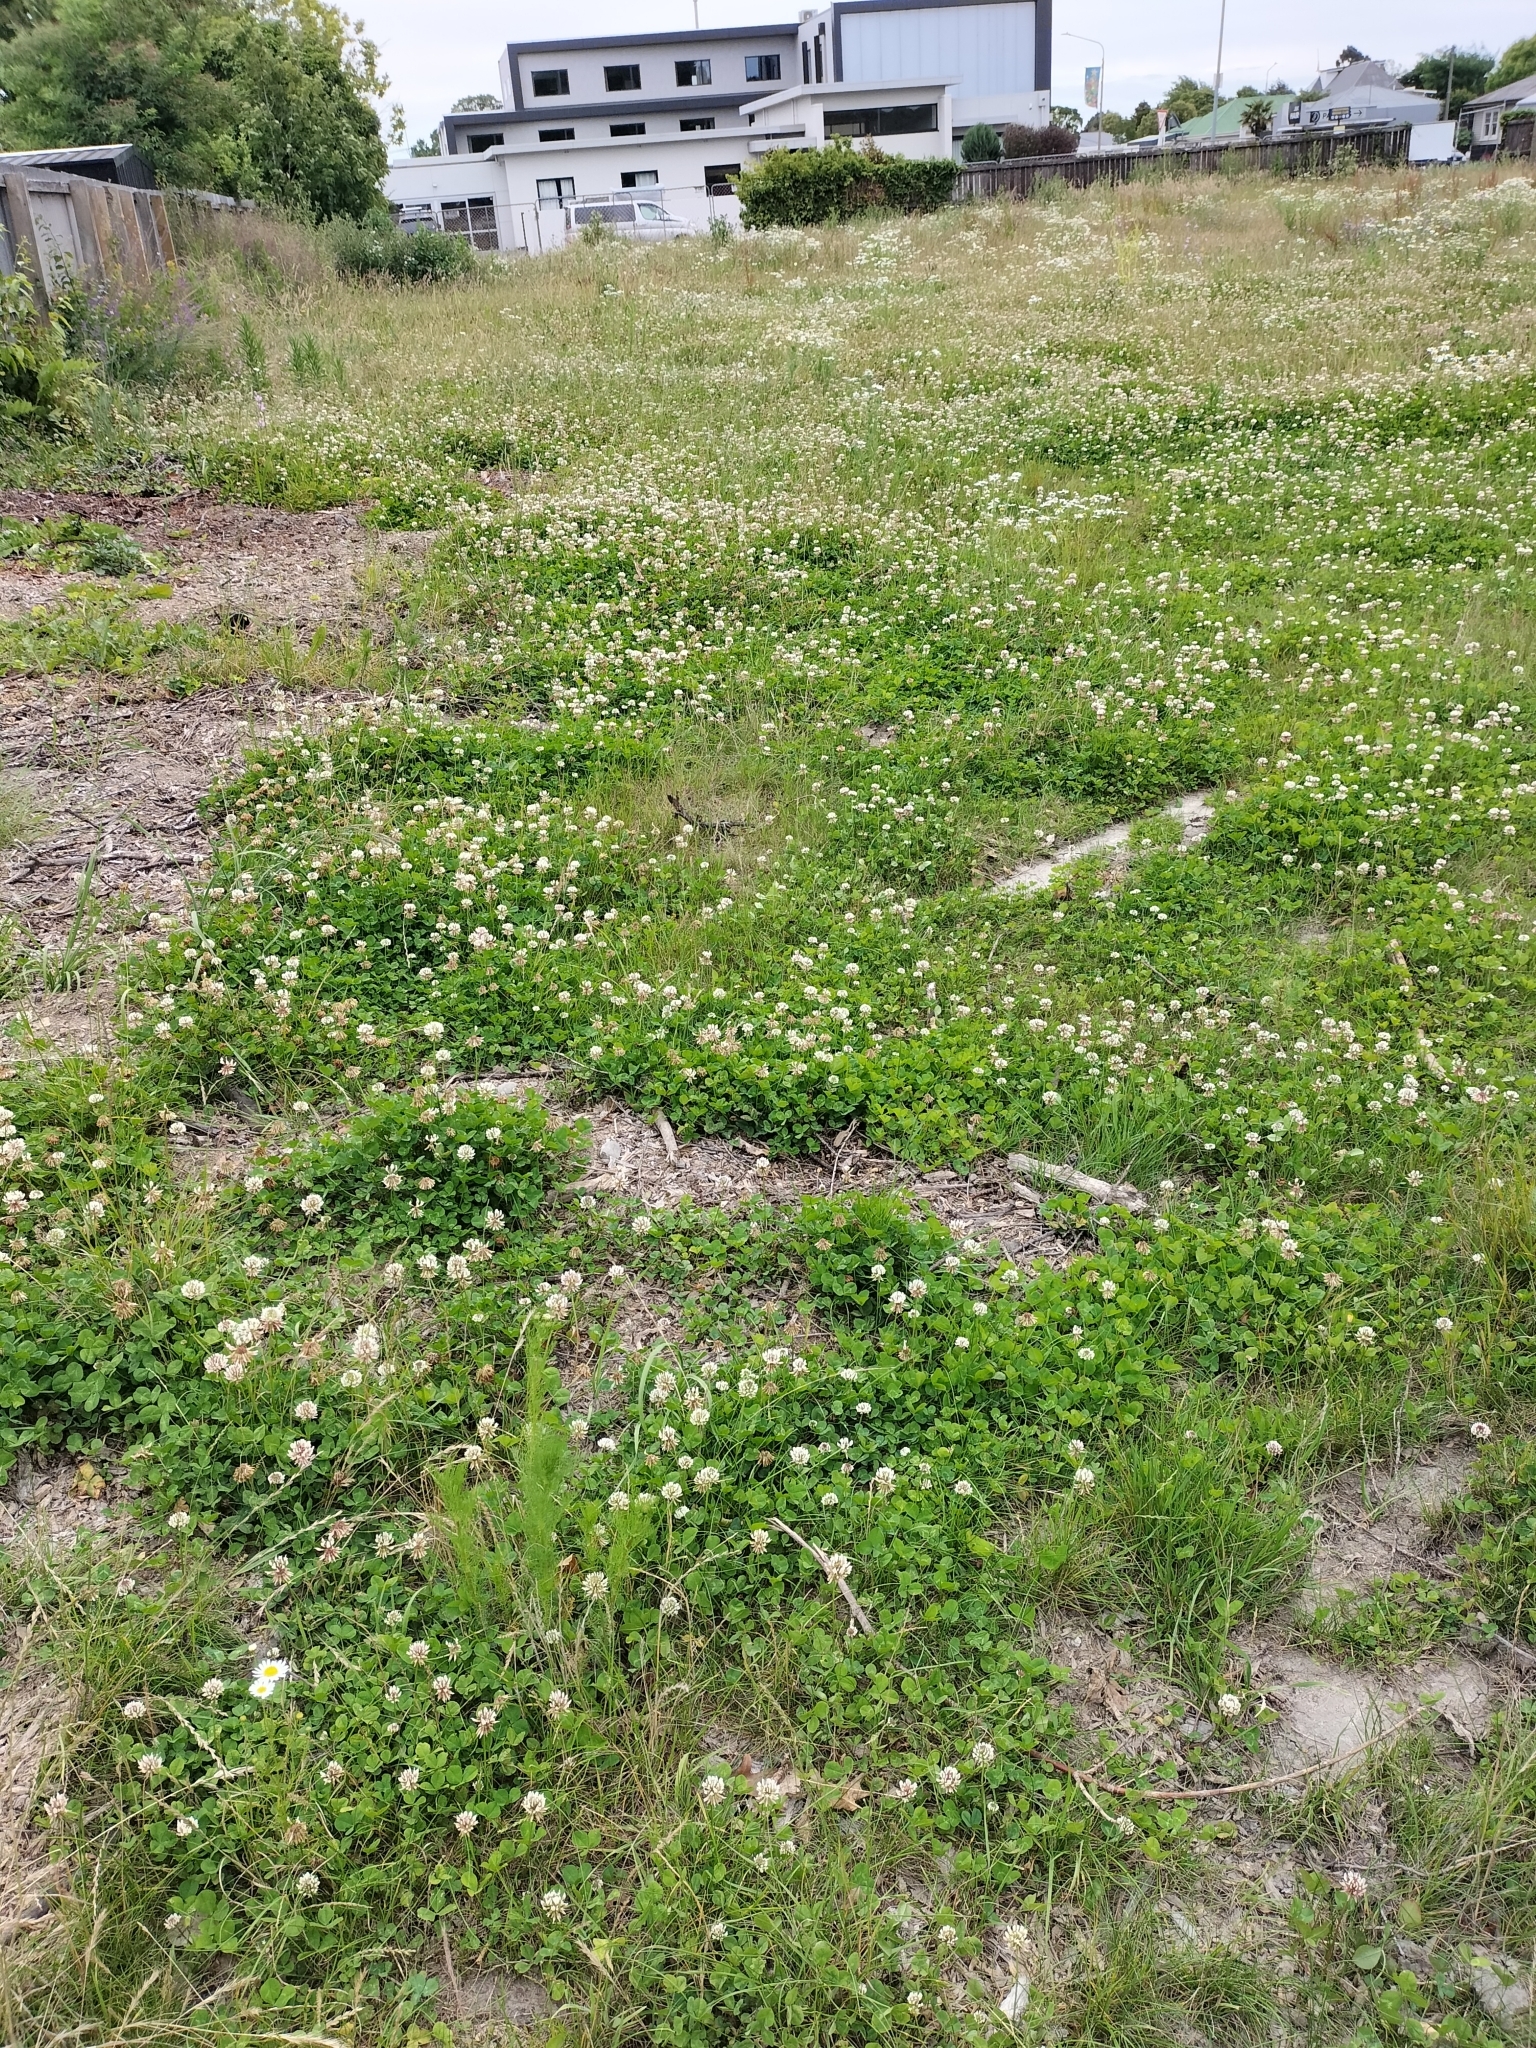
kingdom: Plantae
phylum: Tracheophyta
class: Magnoliopsida
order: Fabales
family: Fabaceae
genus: Trifolium
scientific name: Trifolium repens
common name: White clover
